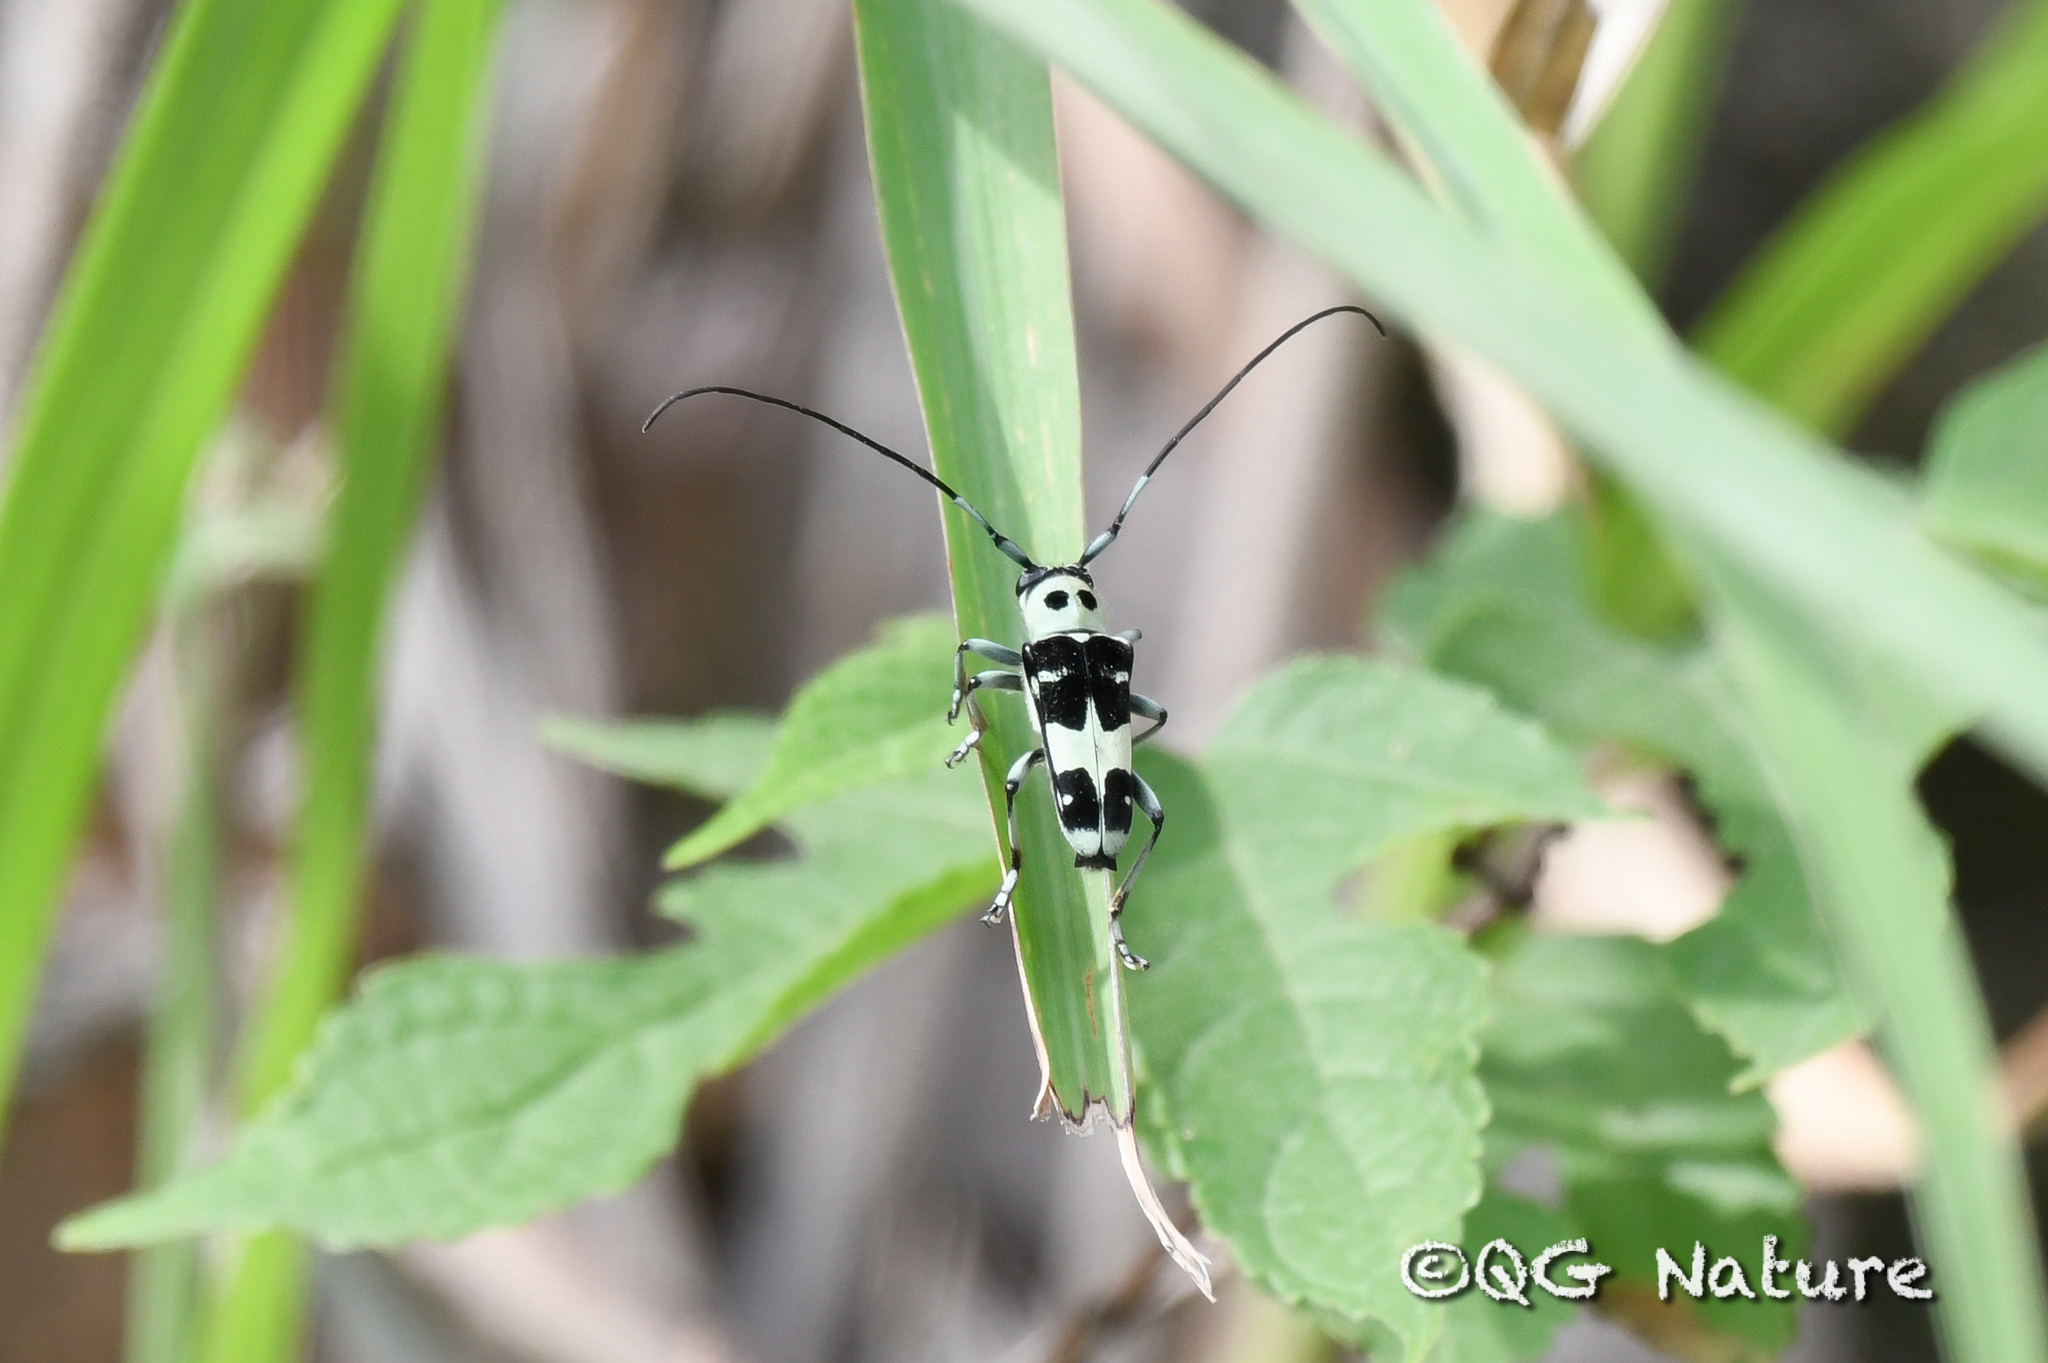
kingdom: Animalia
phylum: Arthropoda
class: Insecta
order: Coleoptera
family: Cerambycidae
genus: Paraglenea
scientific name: Paraglenea fortunei
